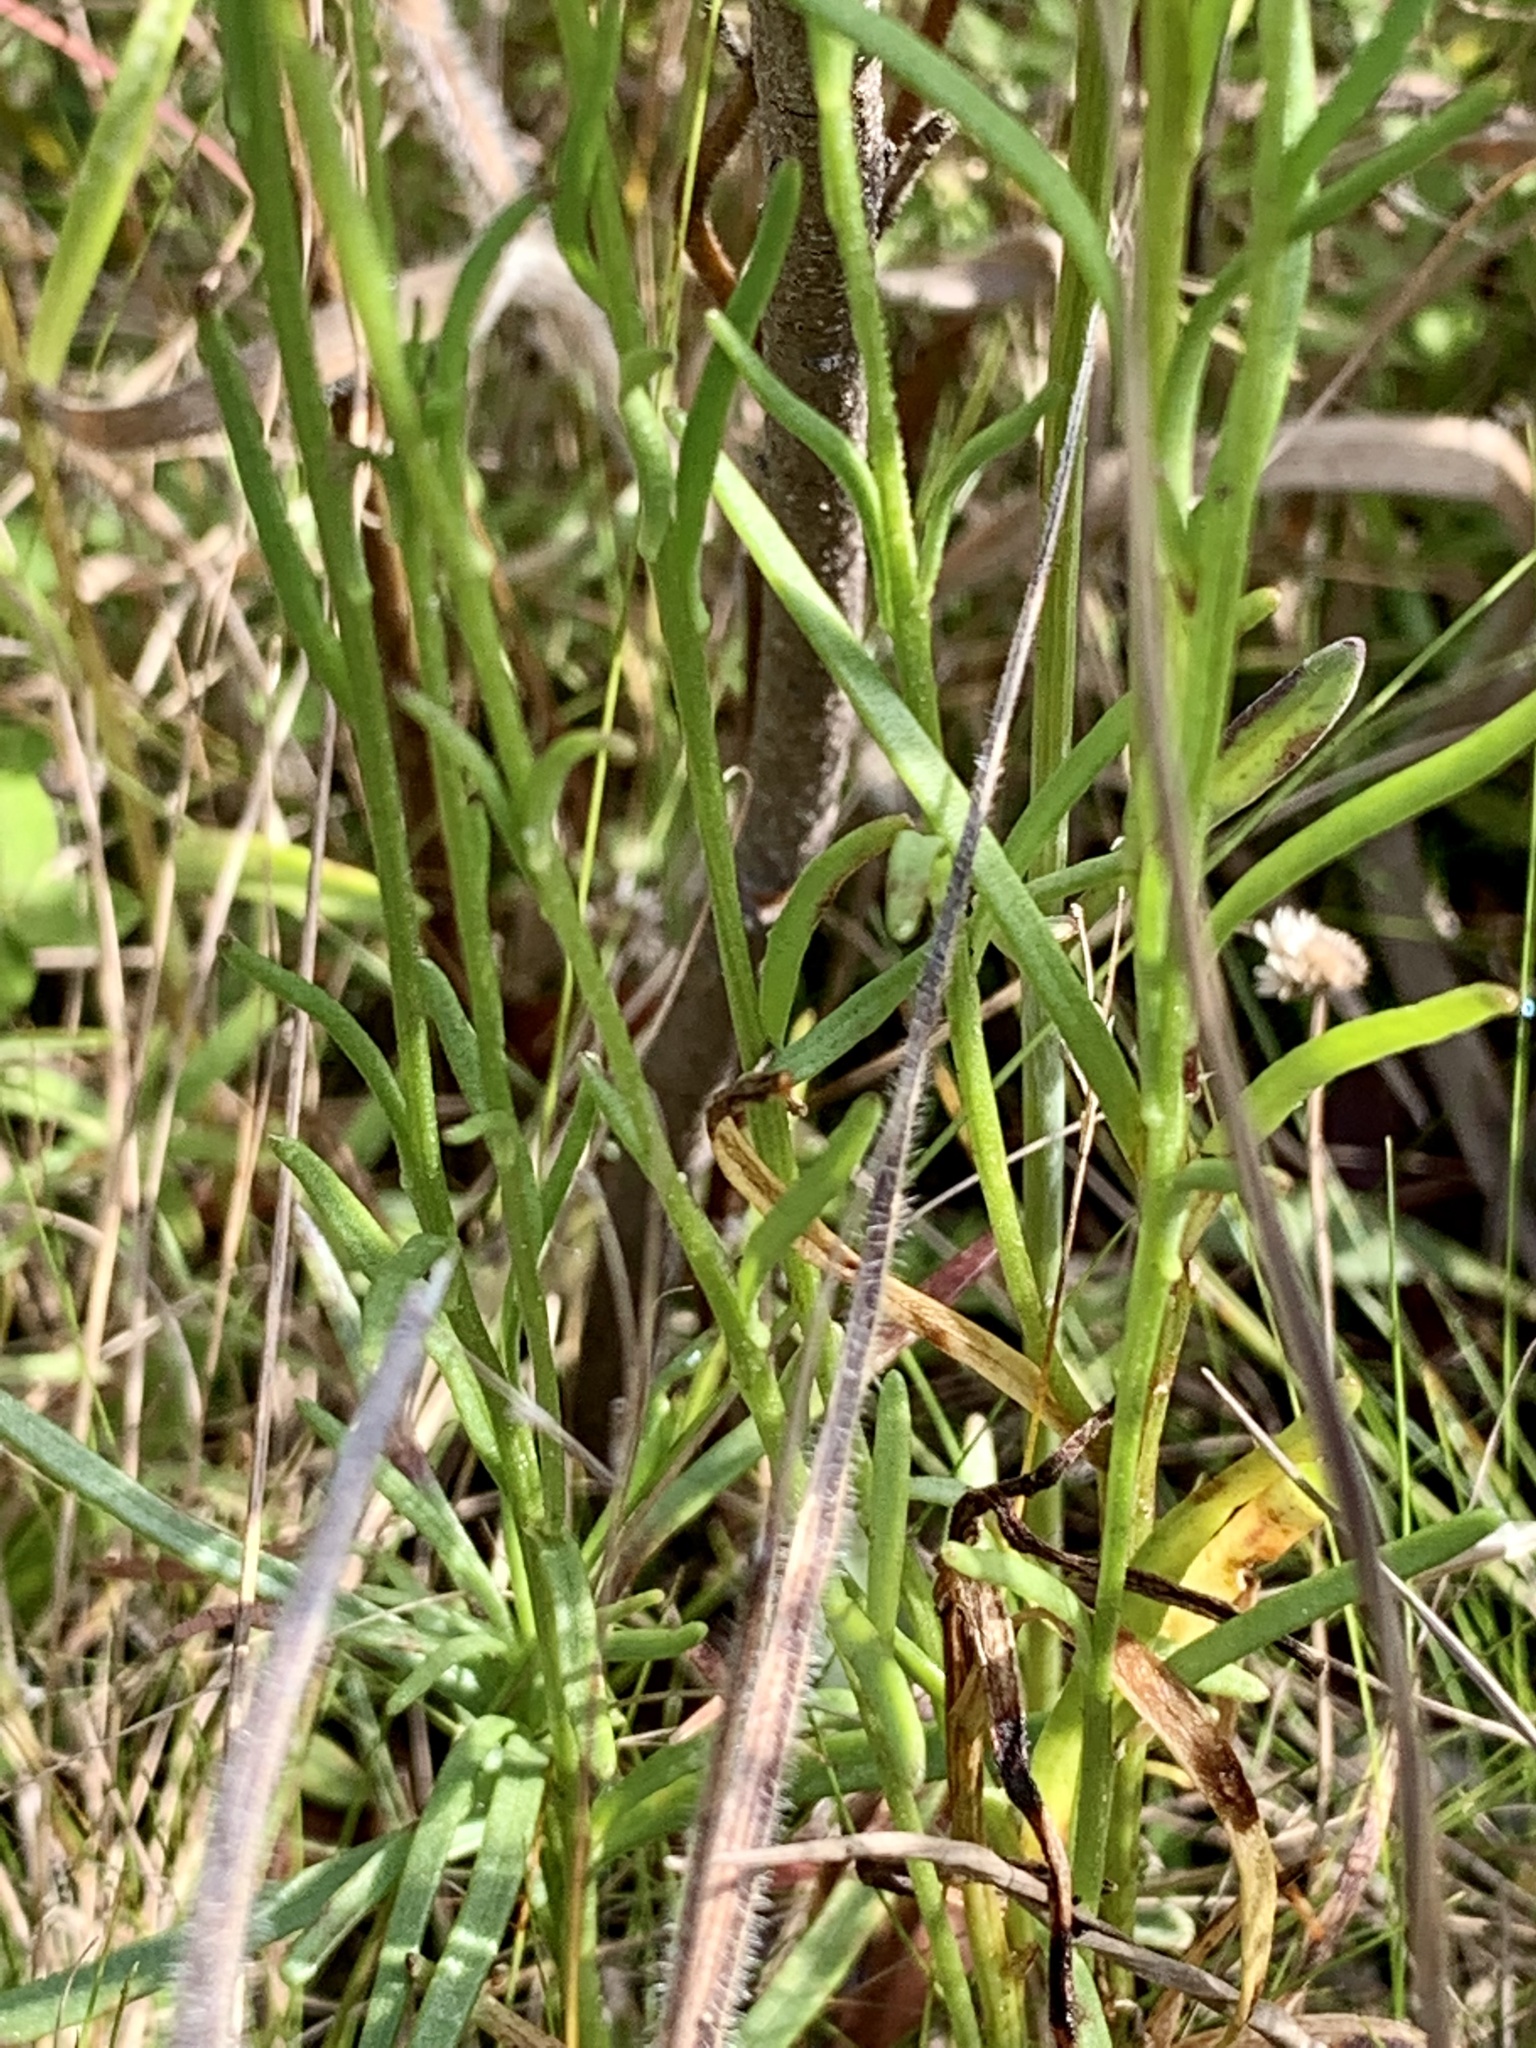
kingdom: Plantae
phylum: Tracheophyta
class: Magnoliopsida
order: Asterales
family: Asteraceae
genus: Marshallia
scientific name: Marshallia graminifolia
